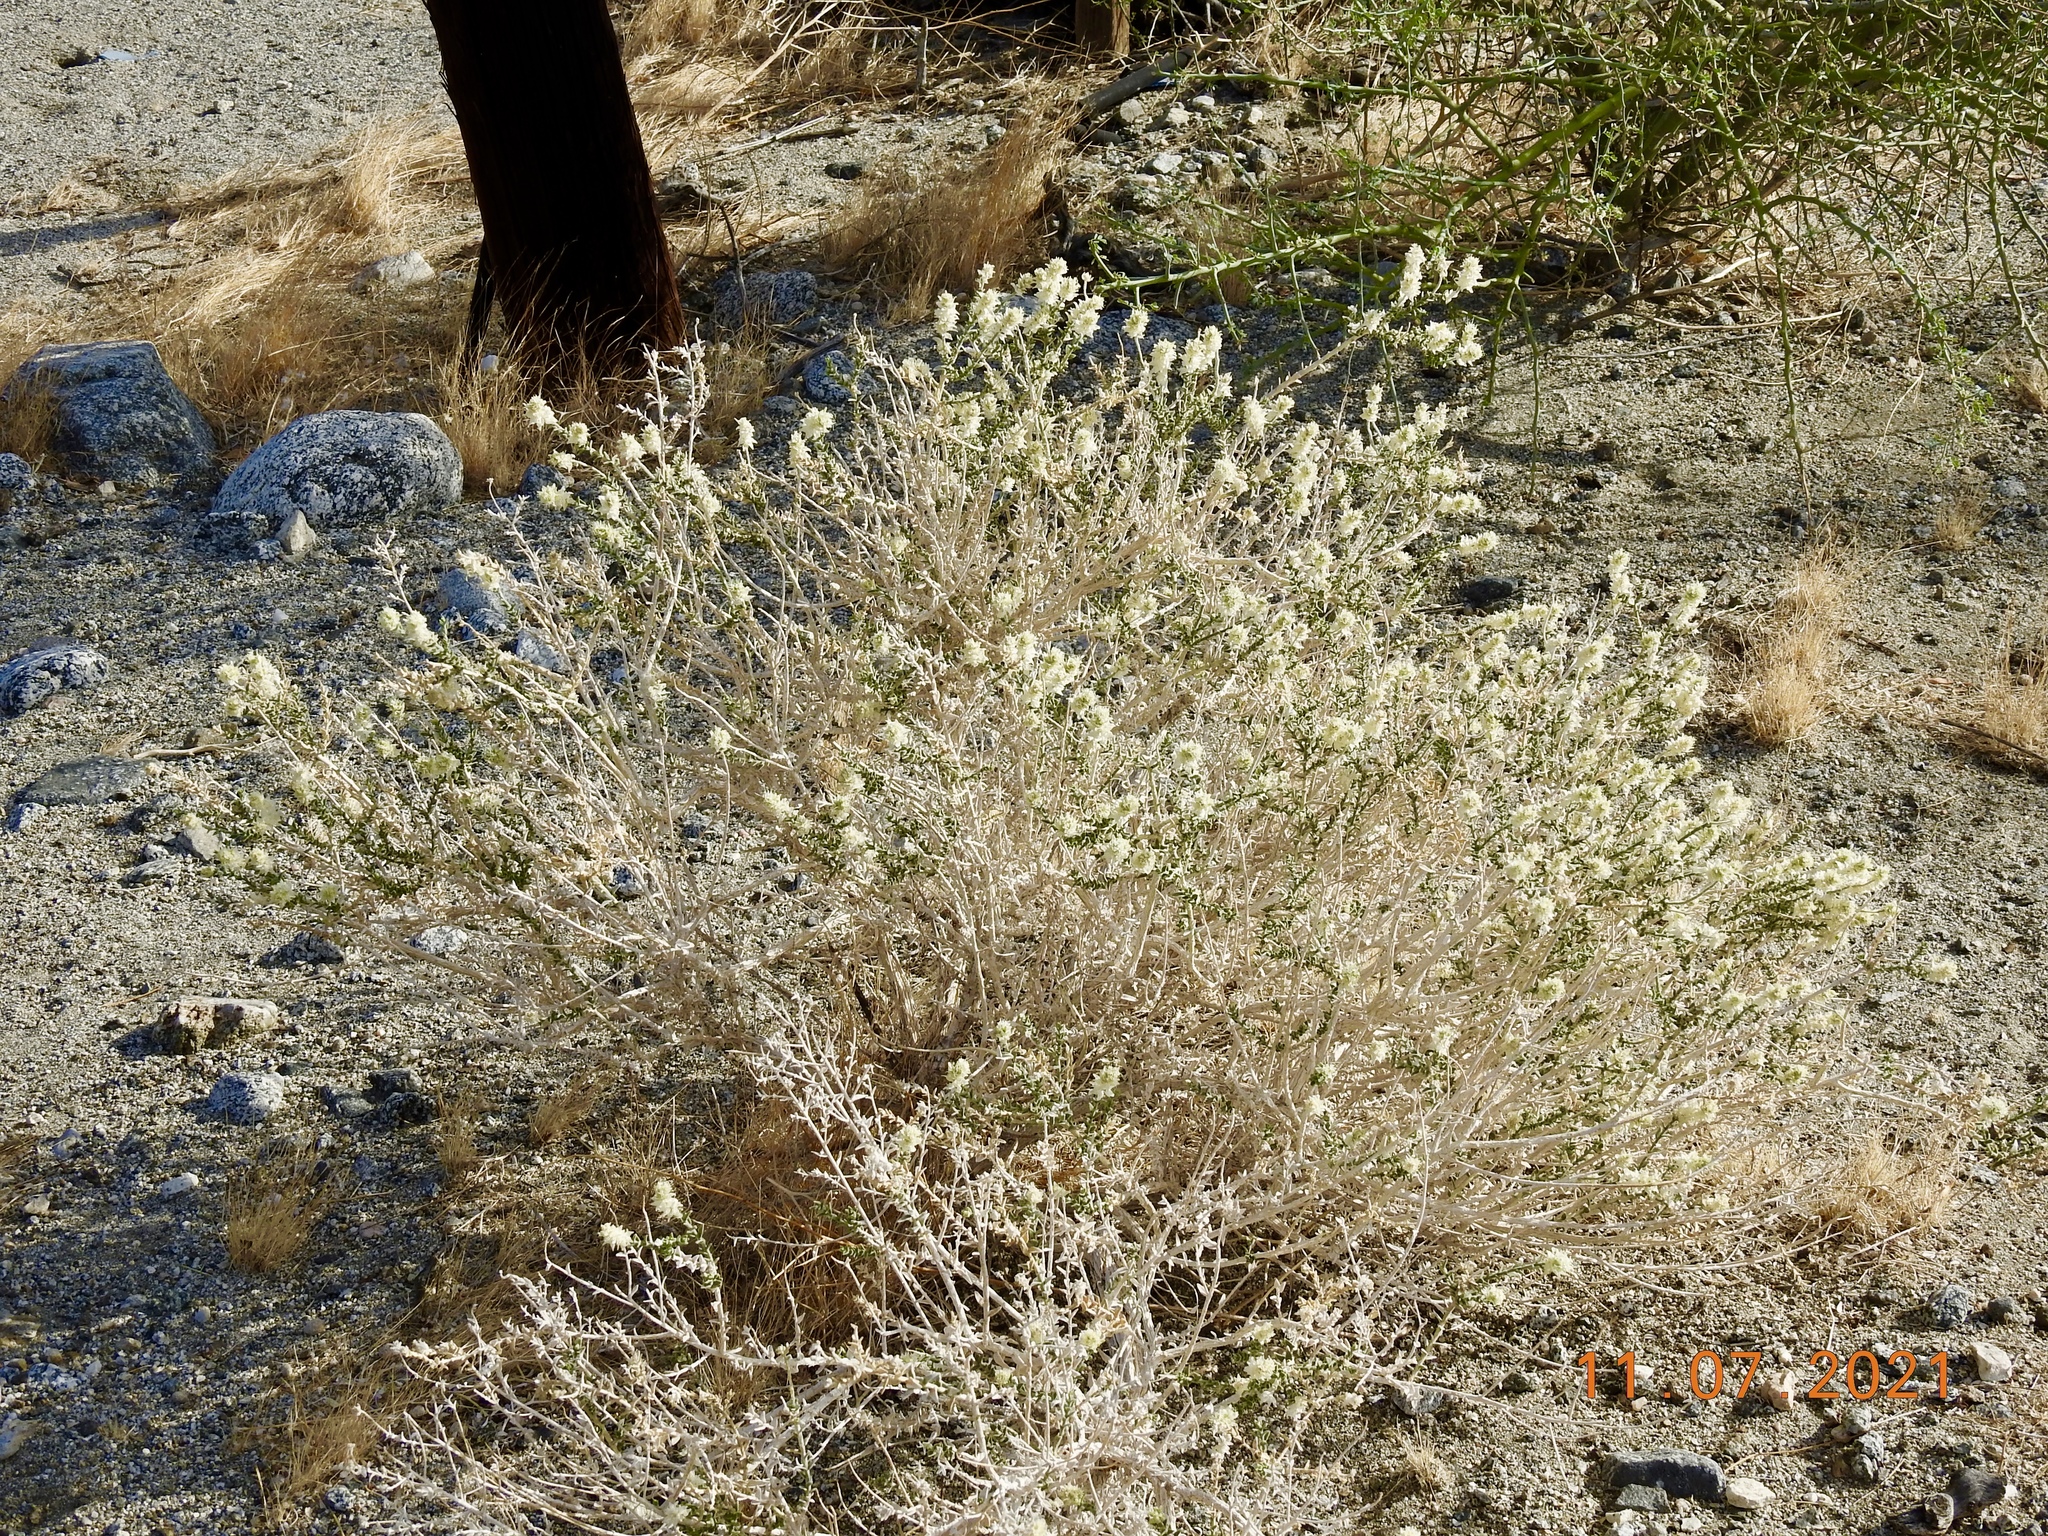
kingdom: Plantae
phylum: Tracheophyta
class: Magnoliopsida
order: Cornales
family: Loasaceae
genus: Petalonyx
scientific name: Petalonyx thurberi
